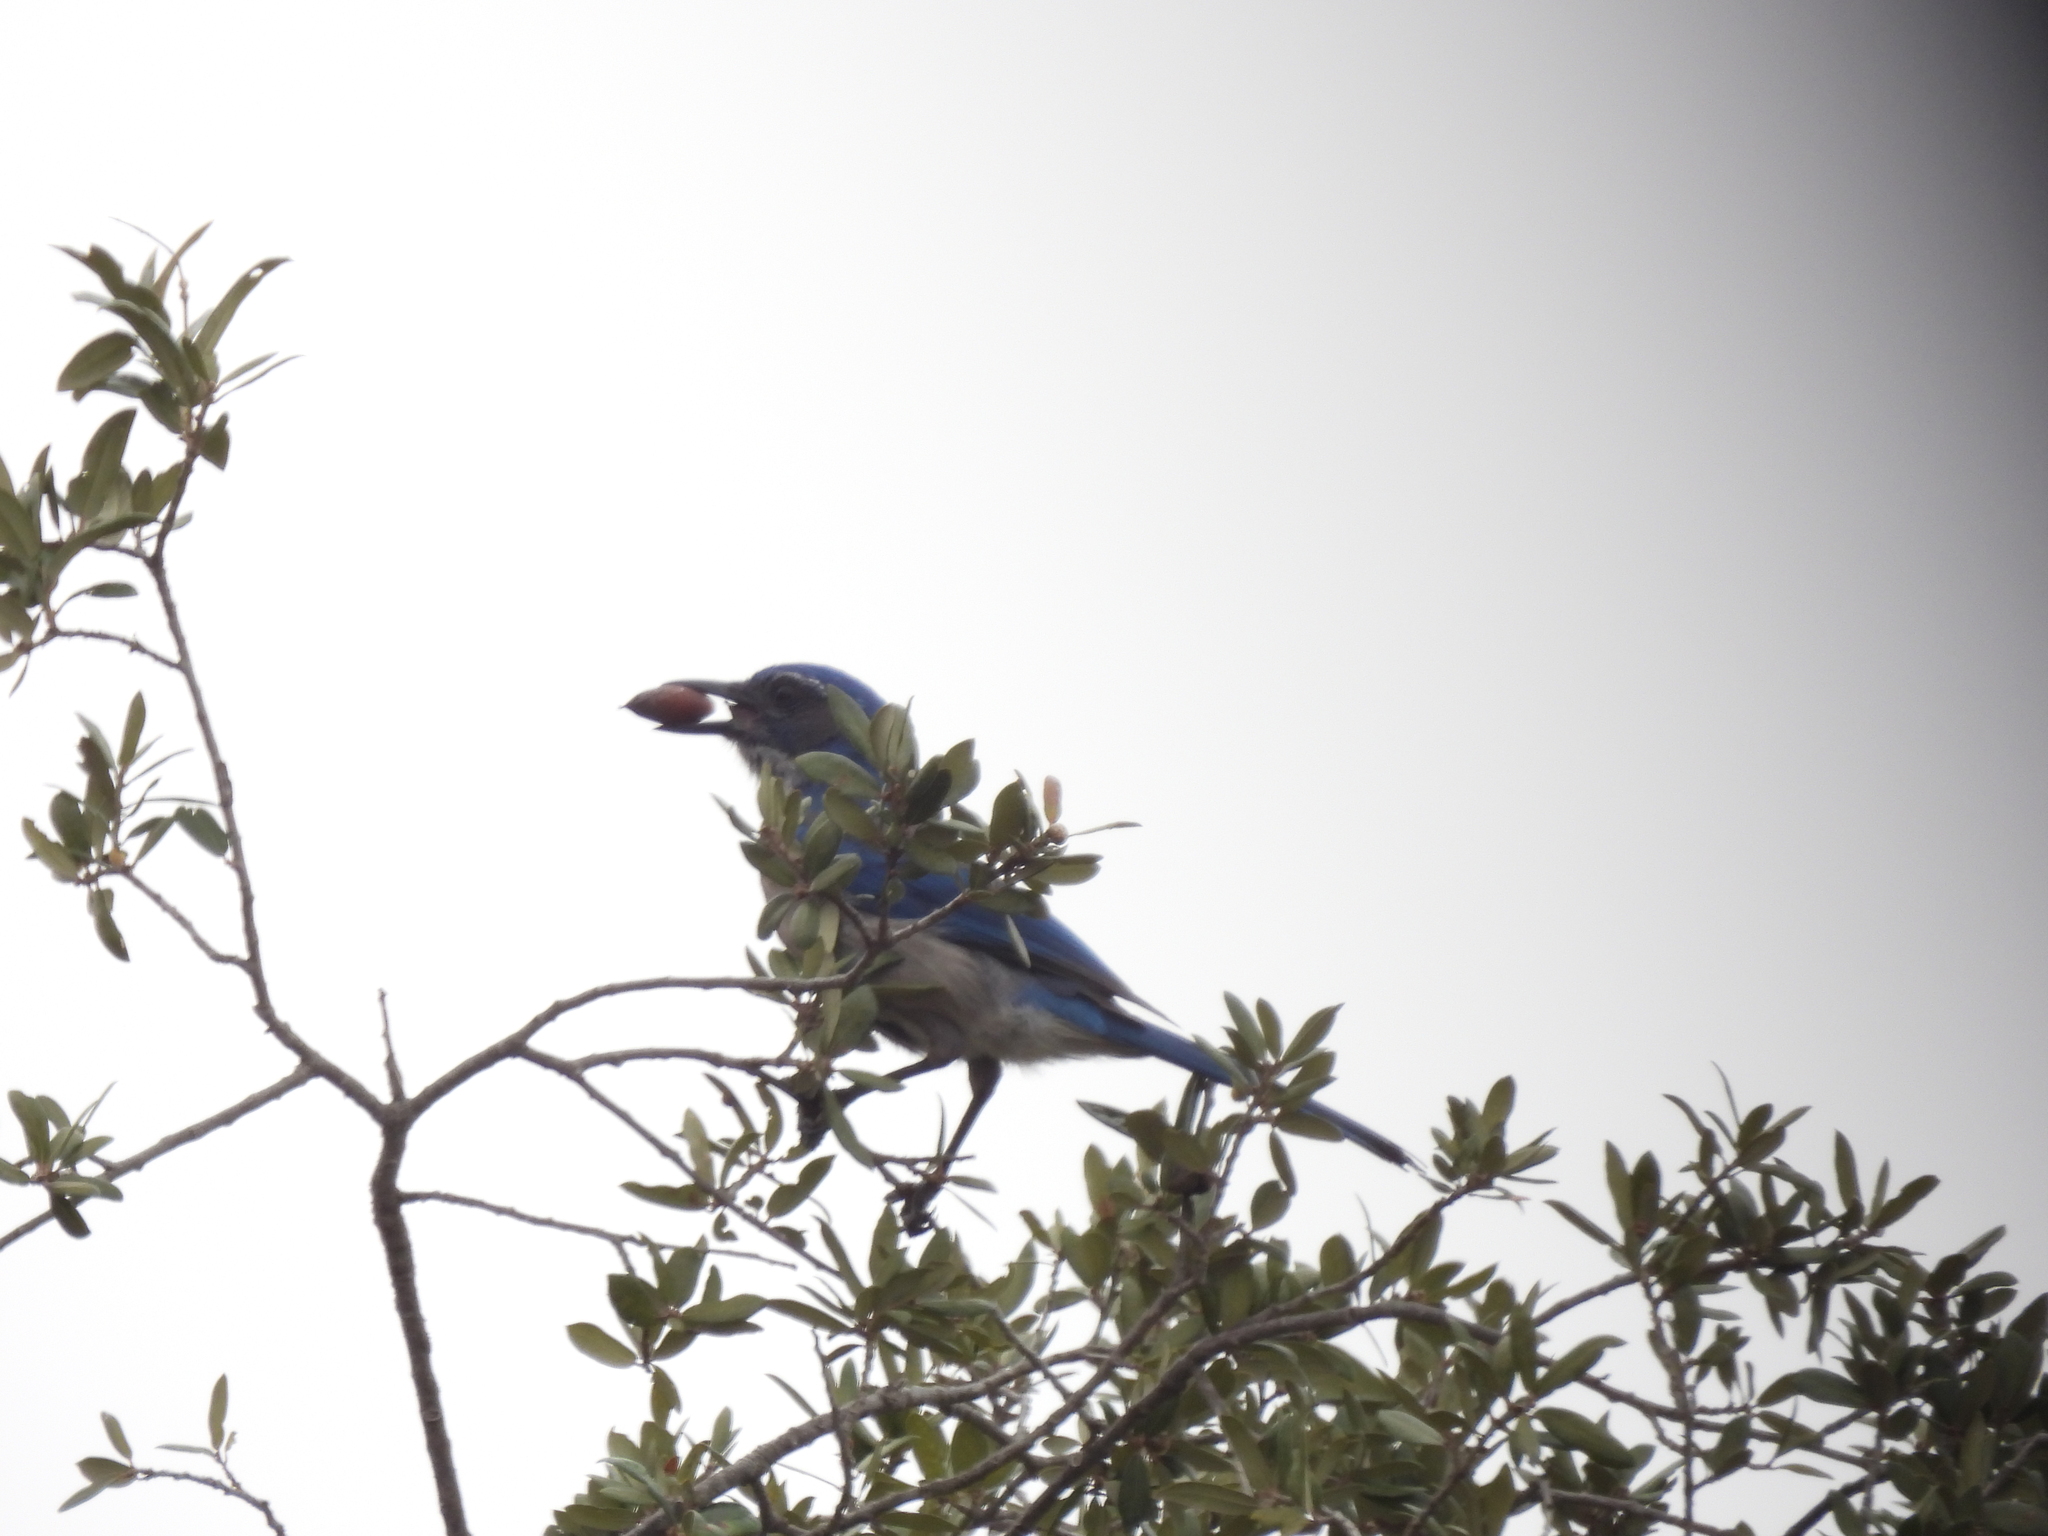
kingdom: Animalia
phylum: Chordata
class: Aves
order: Passeriformes
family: Corvidae
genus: Aphelocoma
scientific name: Aphelocoma woodhouseii
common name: Woodhouse's scrub-jay
